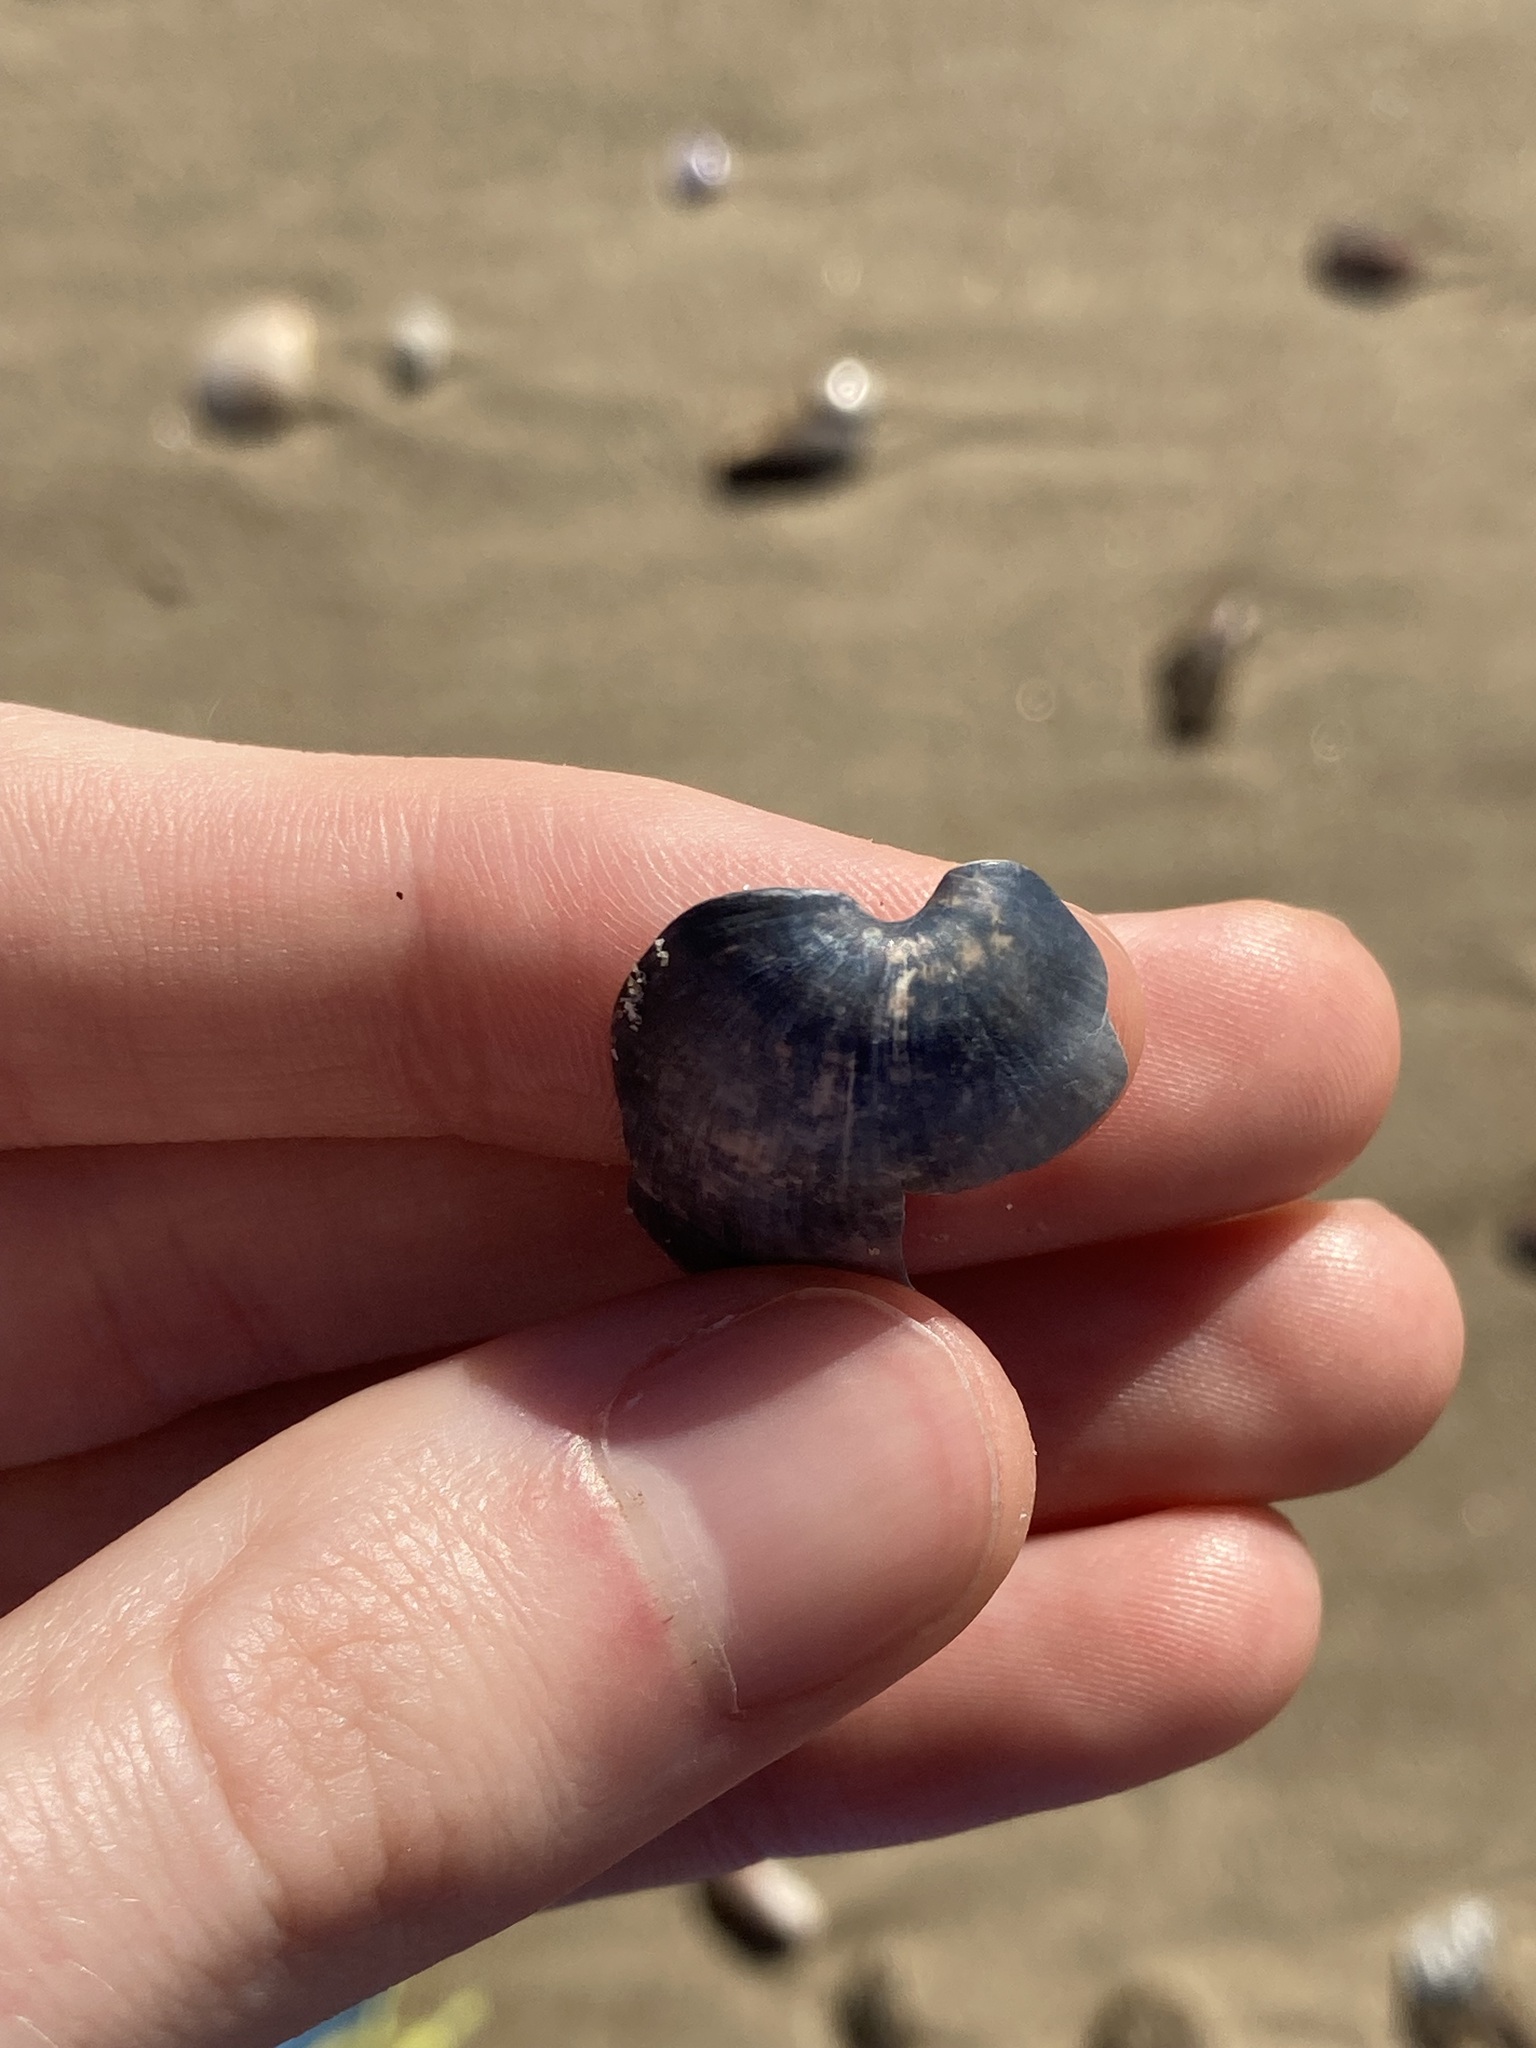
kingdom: Animalia
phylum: Mollusca
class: Gastropoda
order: Cephalaspidea
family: Bullidae
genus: Bulla
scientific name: Bulla quoyii
